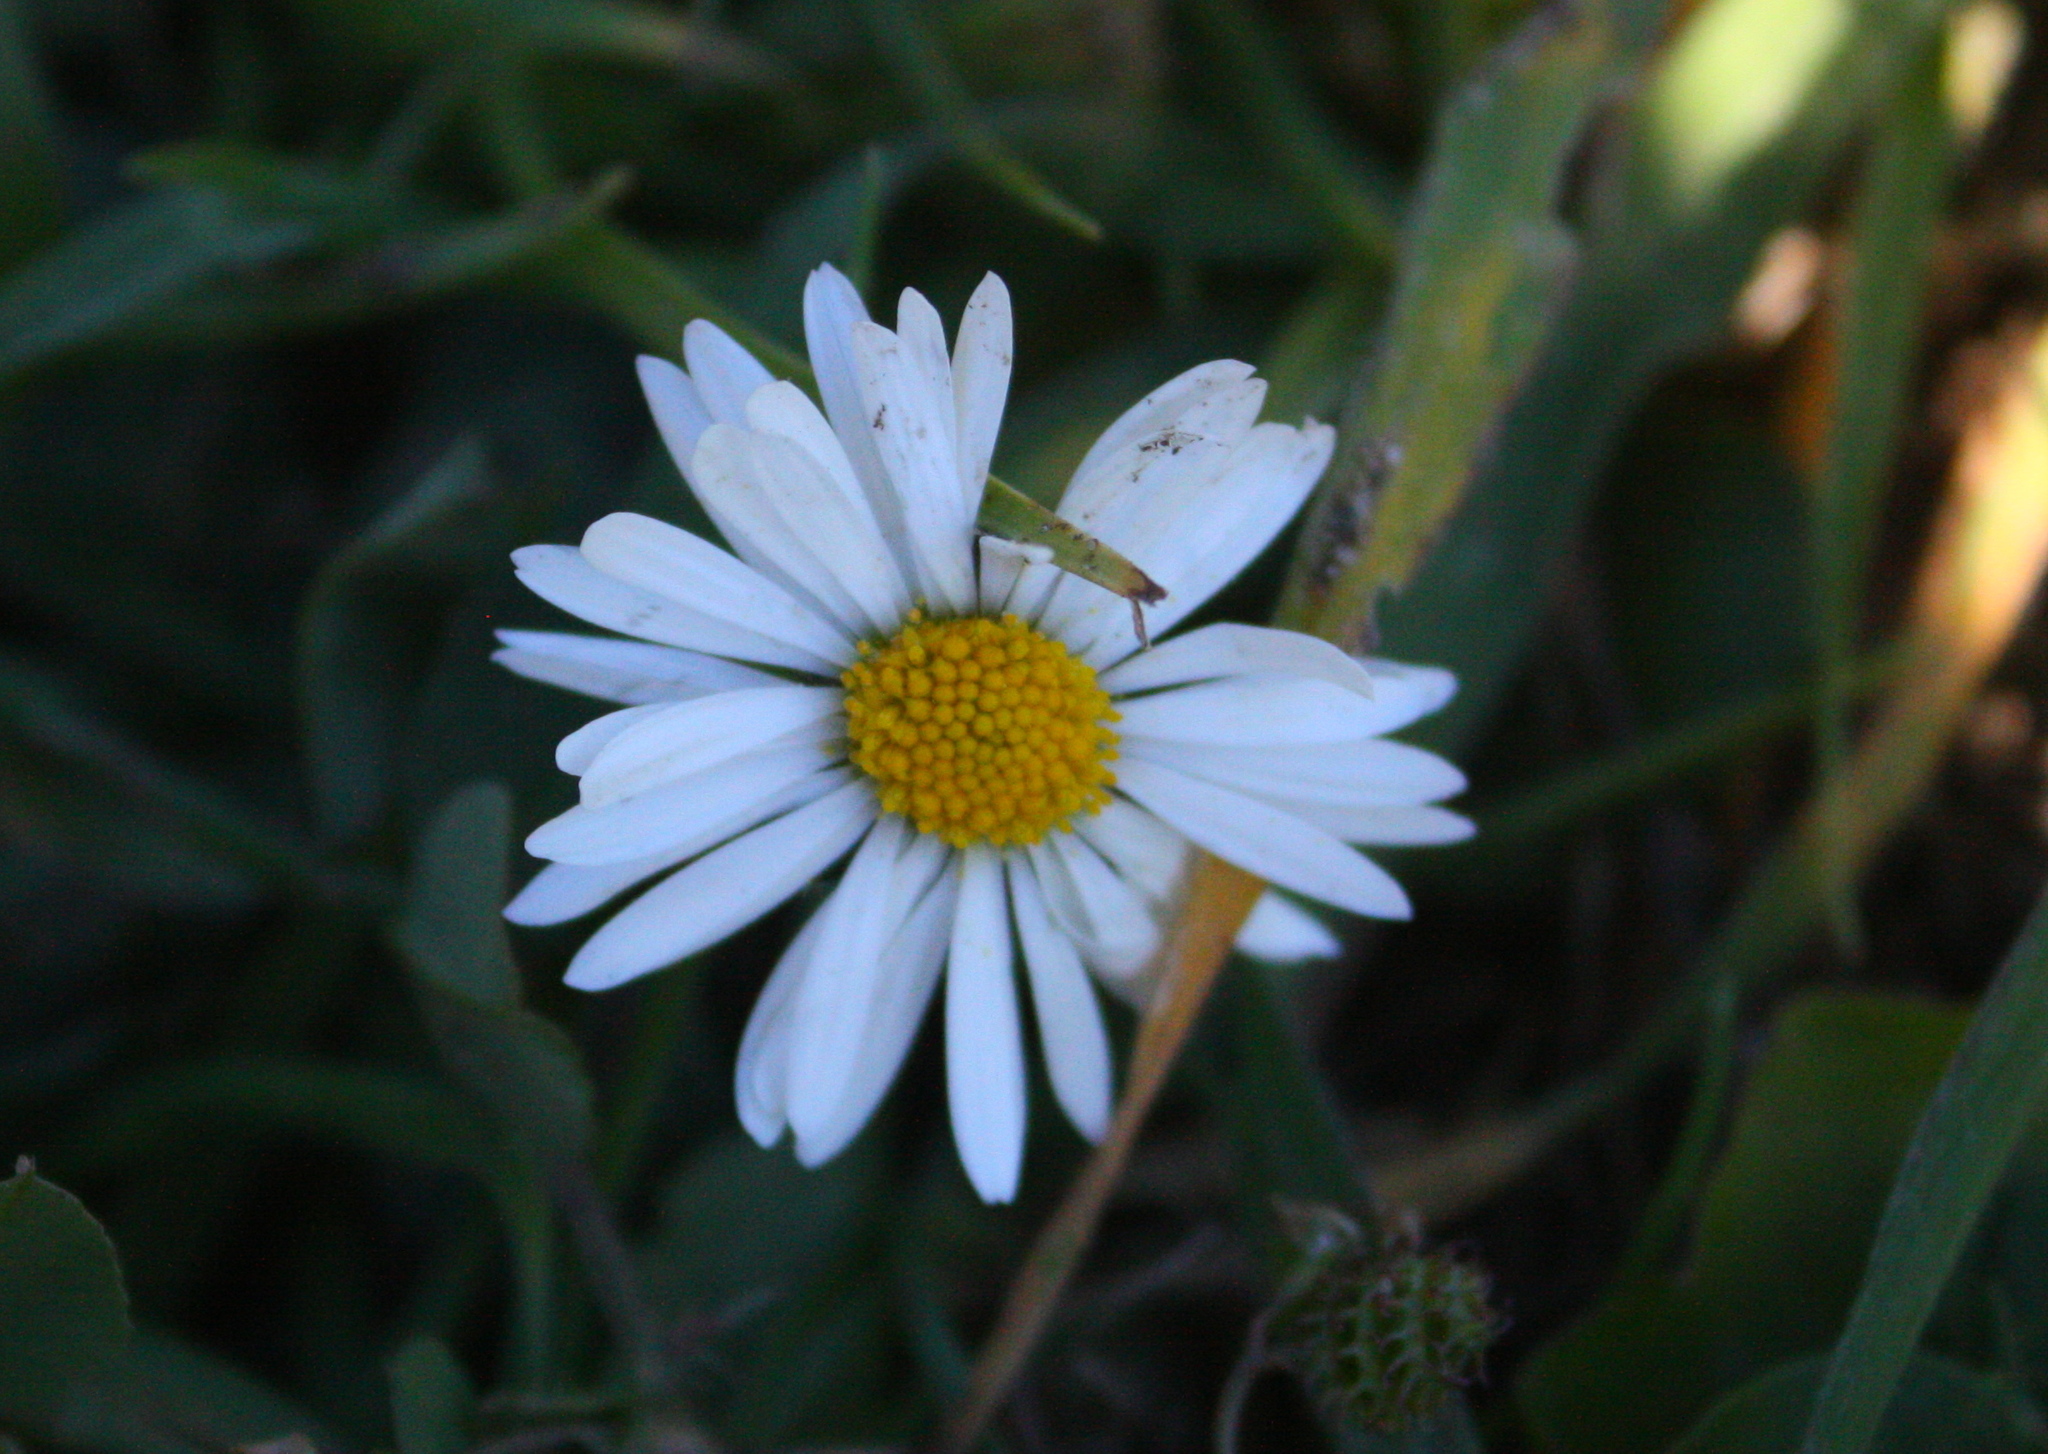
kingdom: Plantae
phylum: Tracheophyta
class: Magnoliopsida
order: Asterales
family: Asteraceae
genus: Bellis
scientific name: Bellis perennis
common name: Lawndaisy
